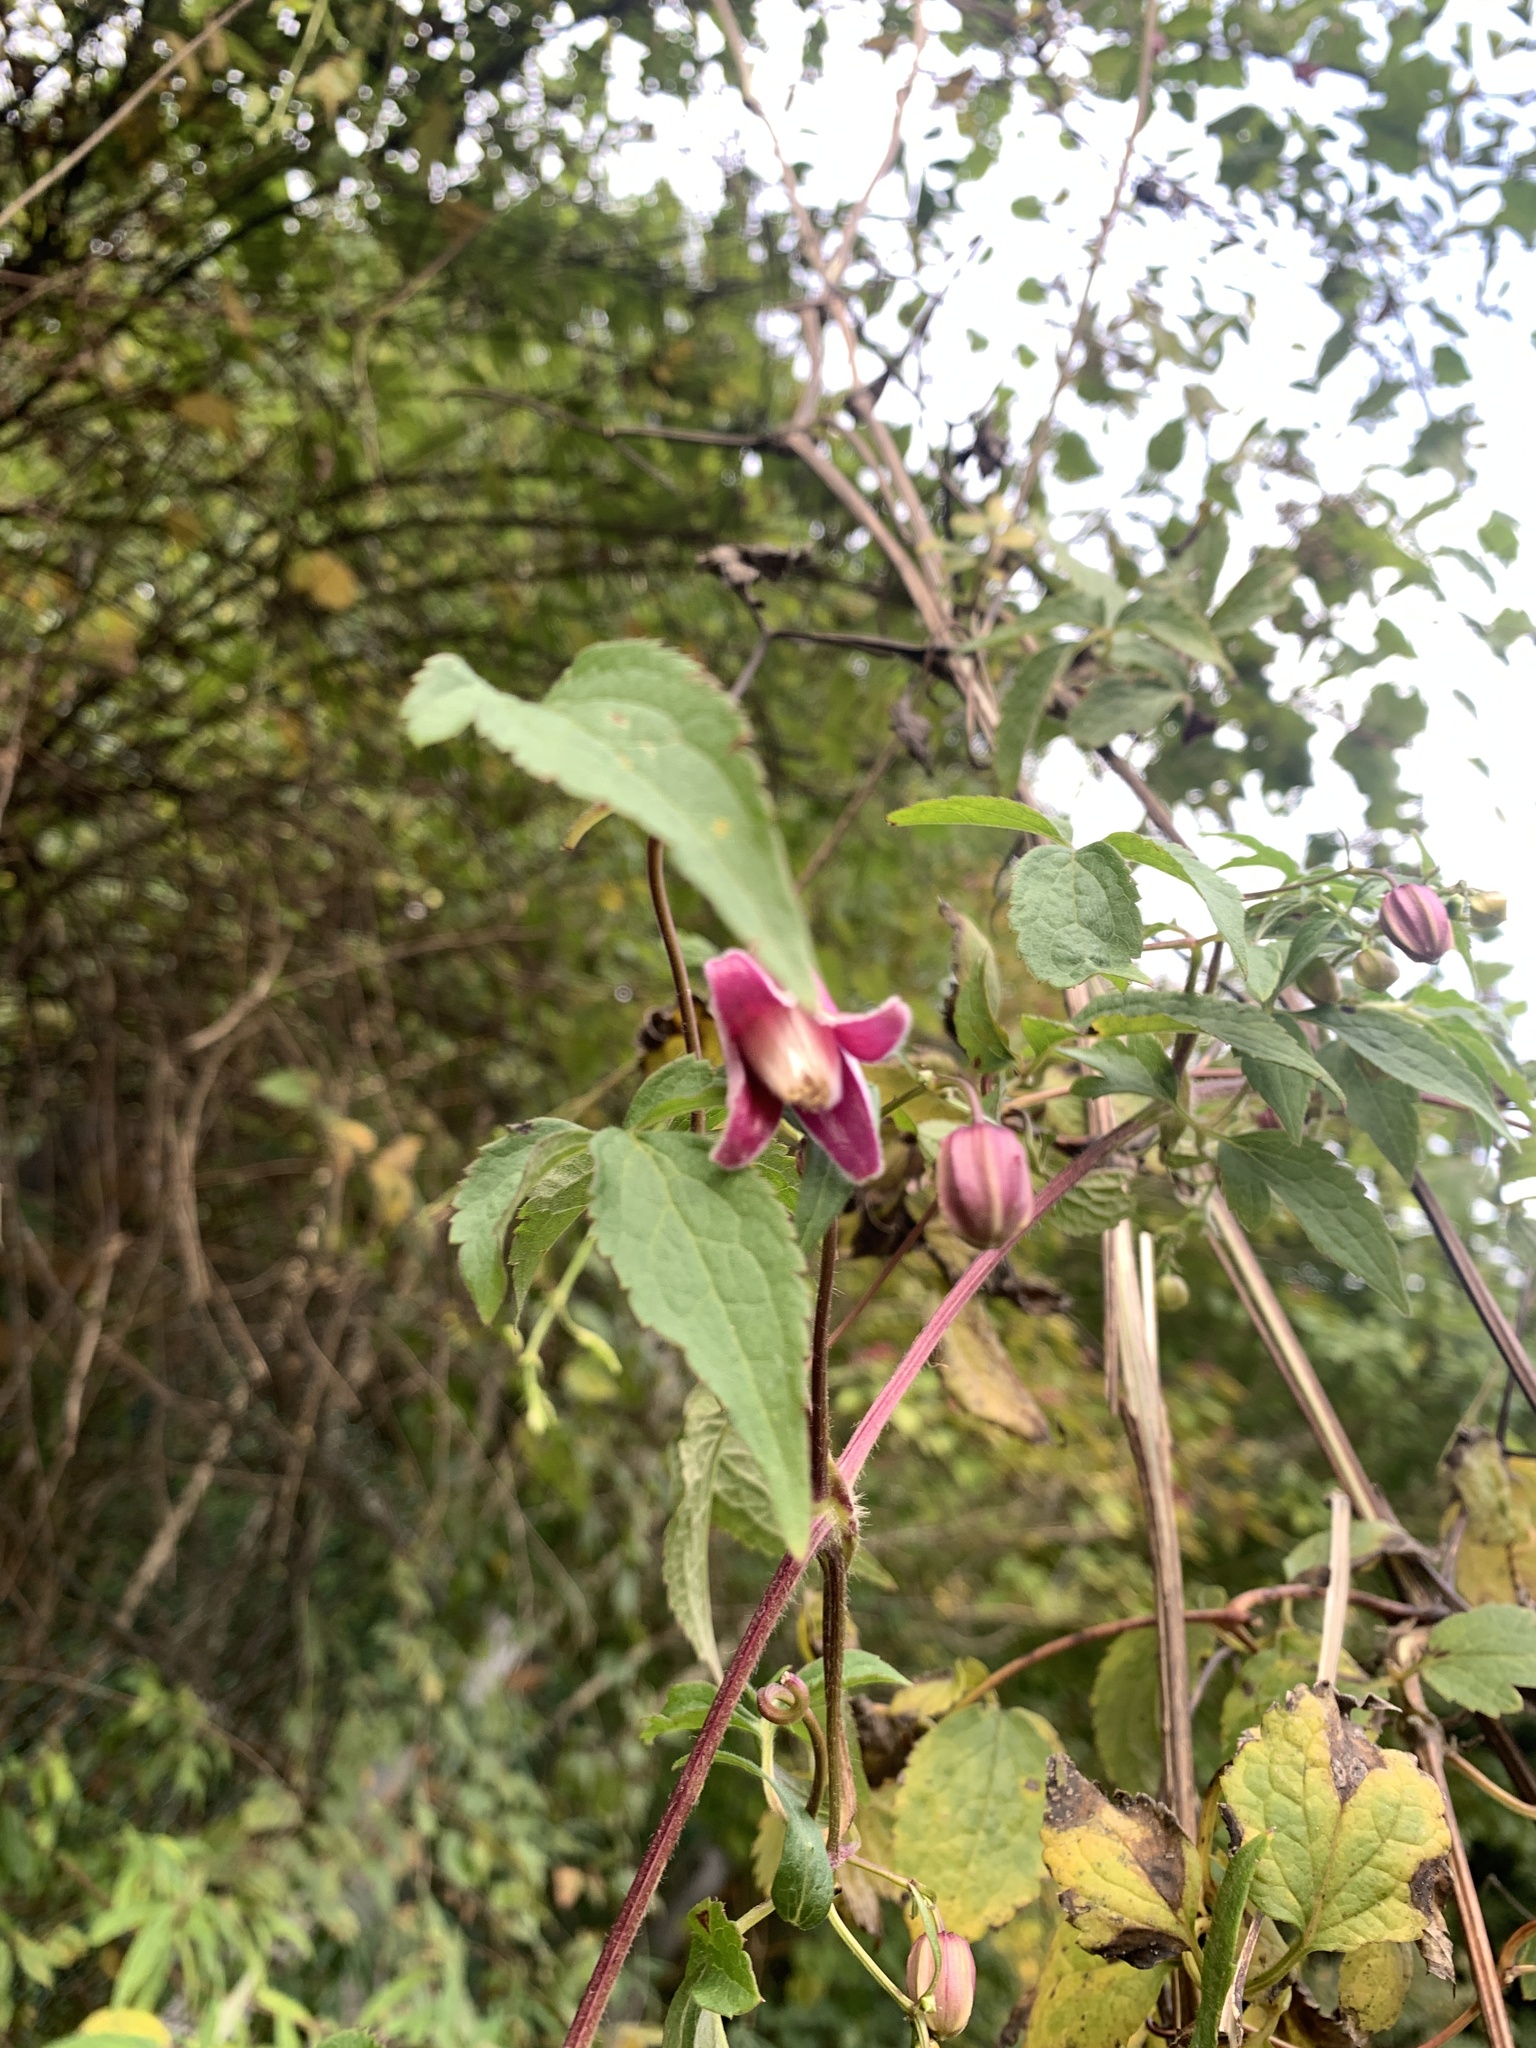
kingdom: Plantae
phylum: Tracheophyta
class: Magnoliopsida
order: Ranunculales
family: Ranunculaceae
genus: Clematis
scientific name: Clematis lasiandra
